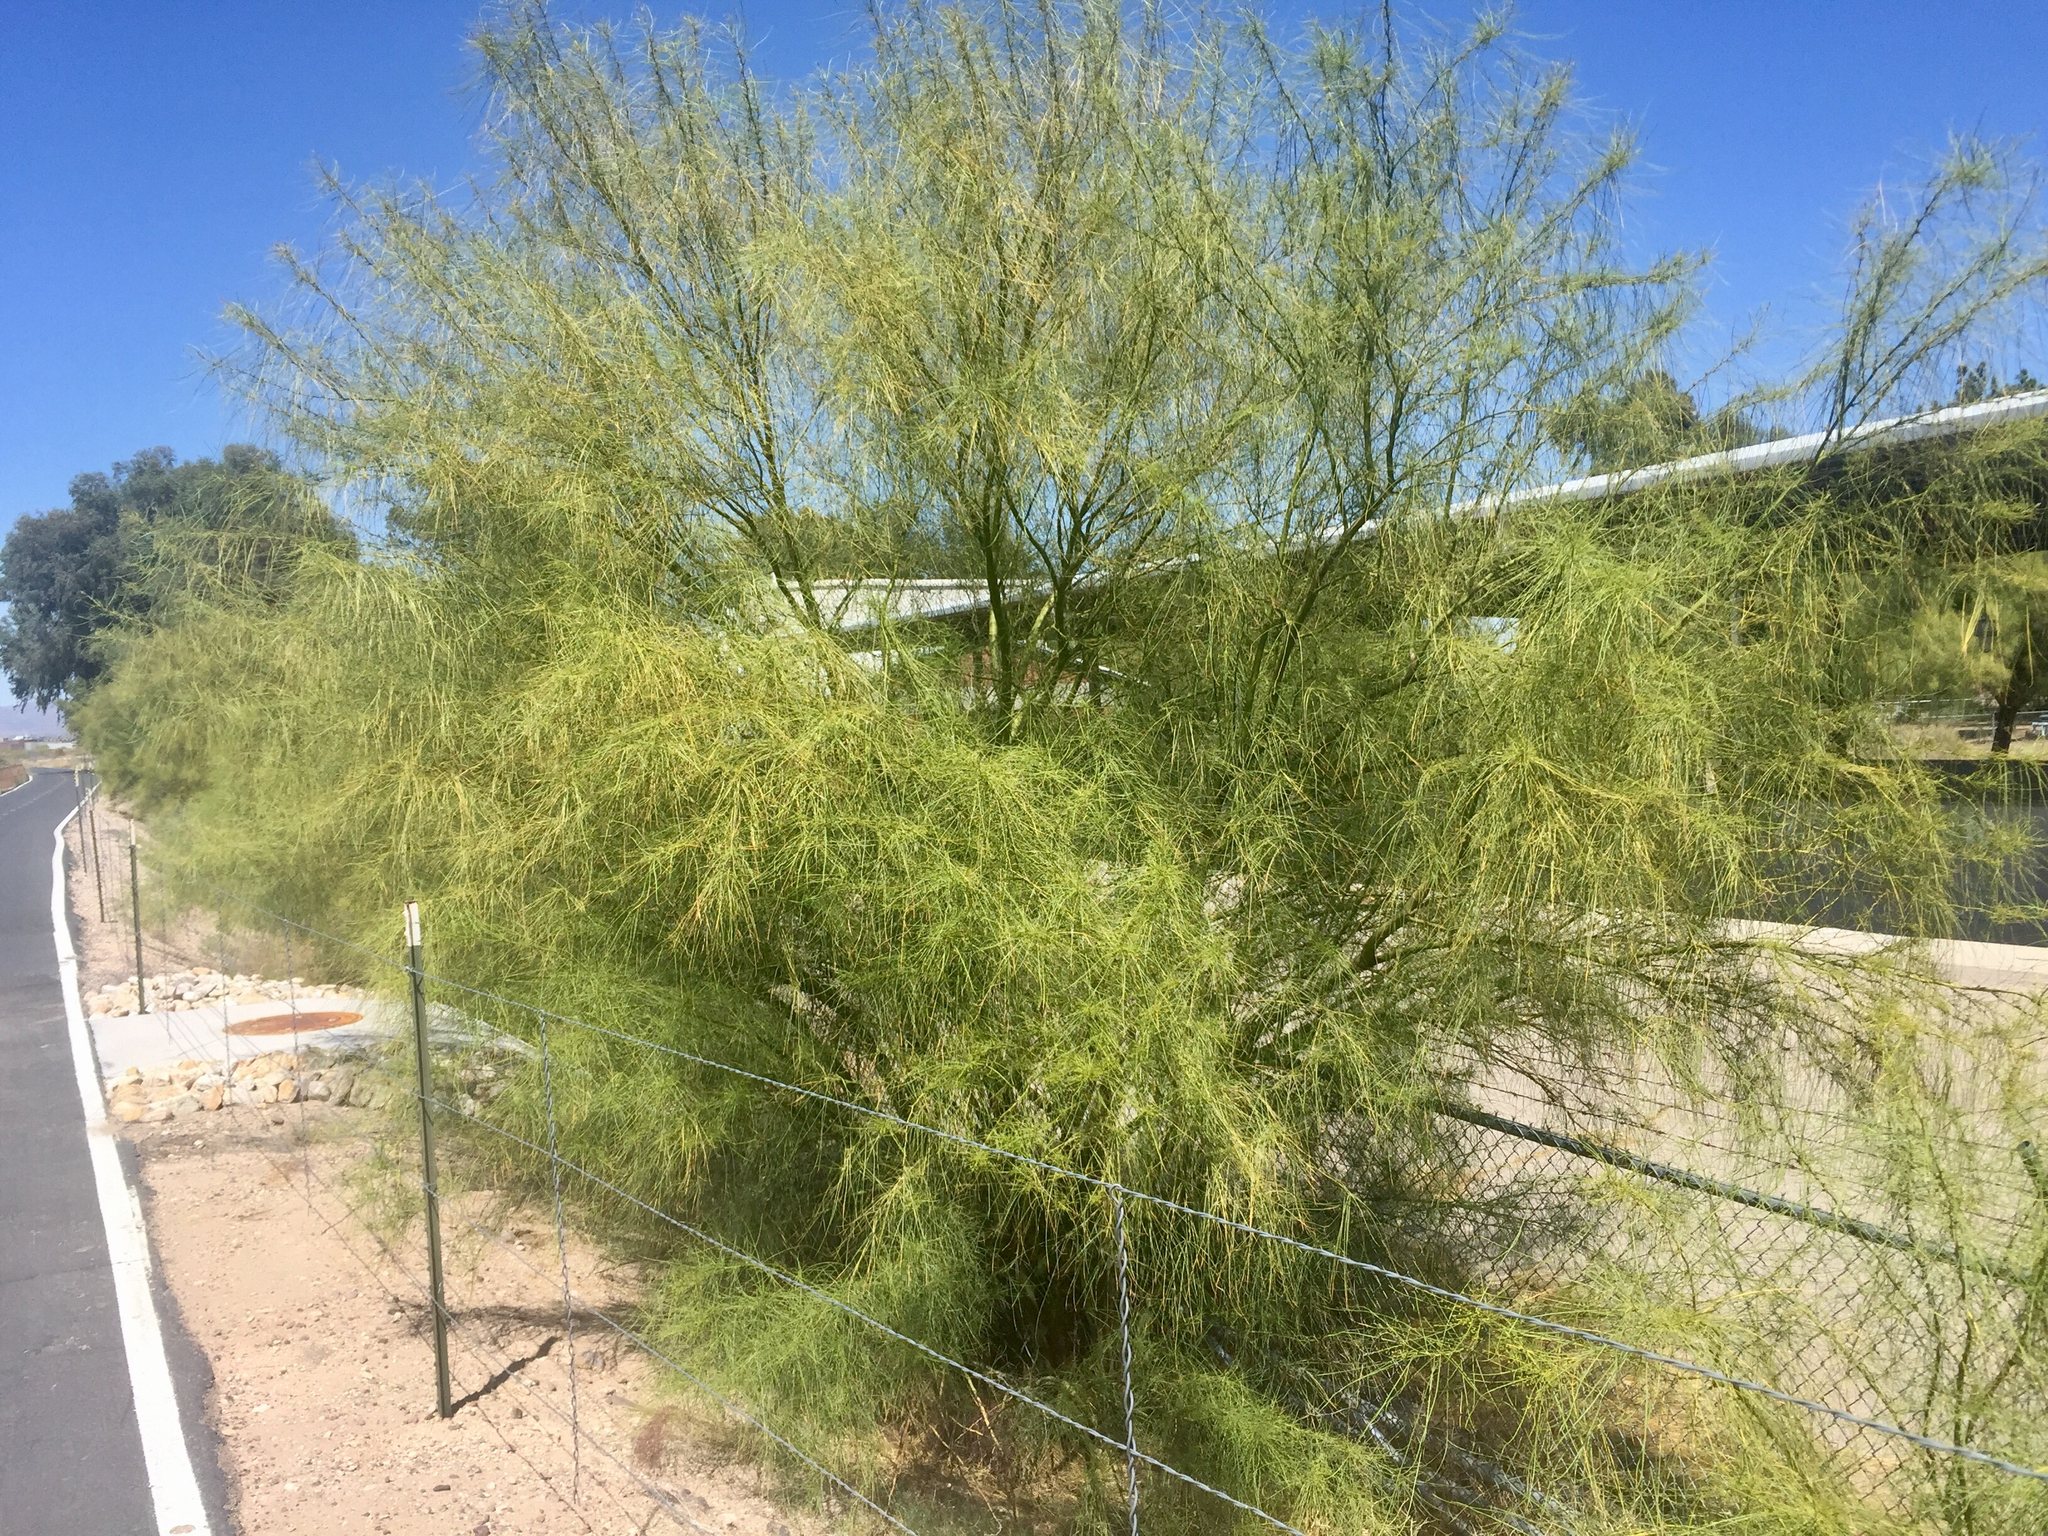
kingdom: Plantae
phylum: Tracheophyta
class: Magnoliopsida
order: Fabales
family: Fabaceae
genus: Parkinsonia
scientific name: Parkinsonia aculeata
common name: Jerusalem thorn
